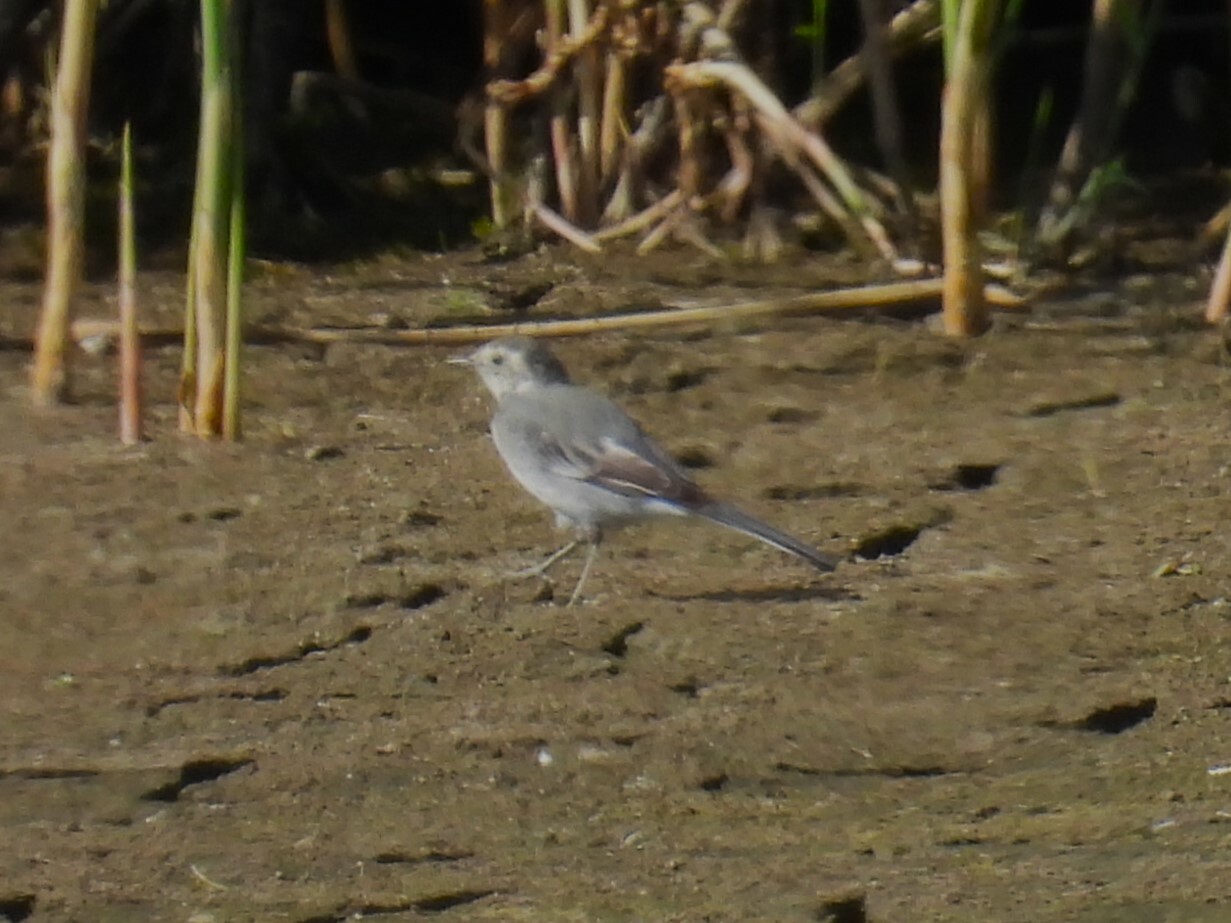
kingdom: Animalia
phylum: Chordata
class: Aves
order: Passeriformes
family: Motacillidae
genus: Motacilla
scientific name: Motacilla alba
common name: White wagtail
